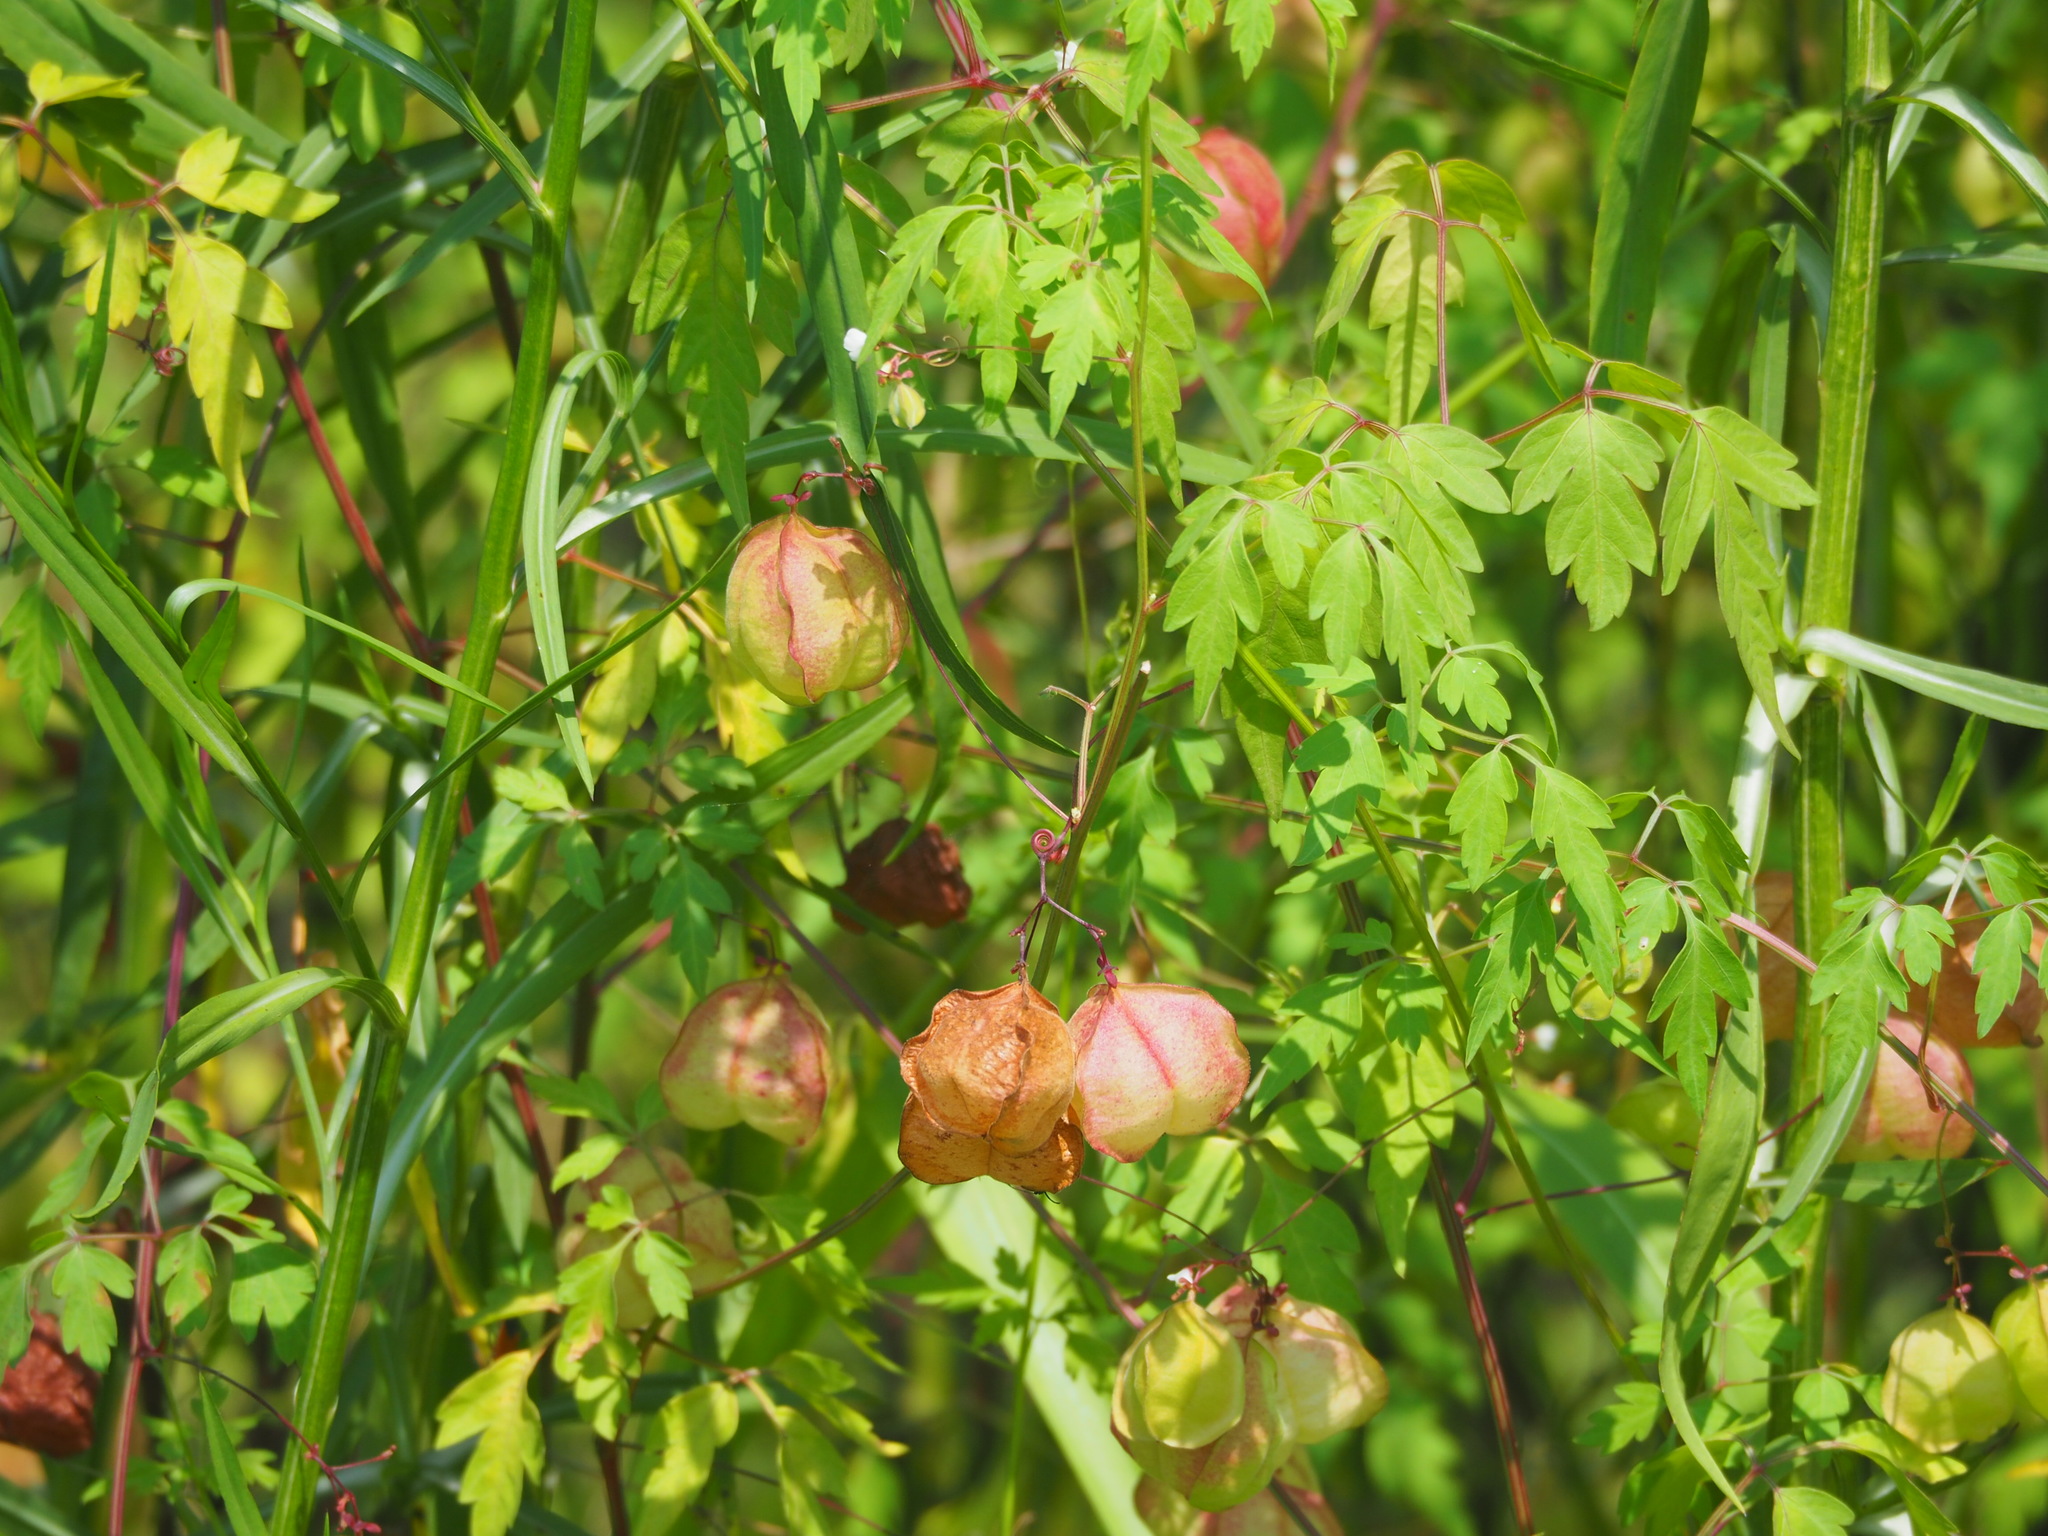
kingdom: Plantae
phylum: Tracheophyta
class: Magnoliopsida
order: Sapindales
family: Sapindaceae
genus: Cardiospermum
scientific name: Cardiospermum halicacabum
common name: Balloon vine
